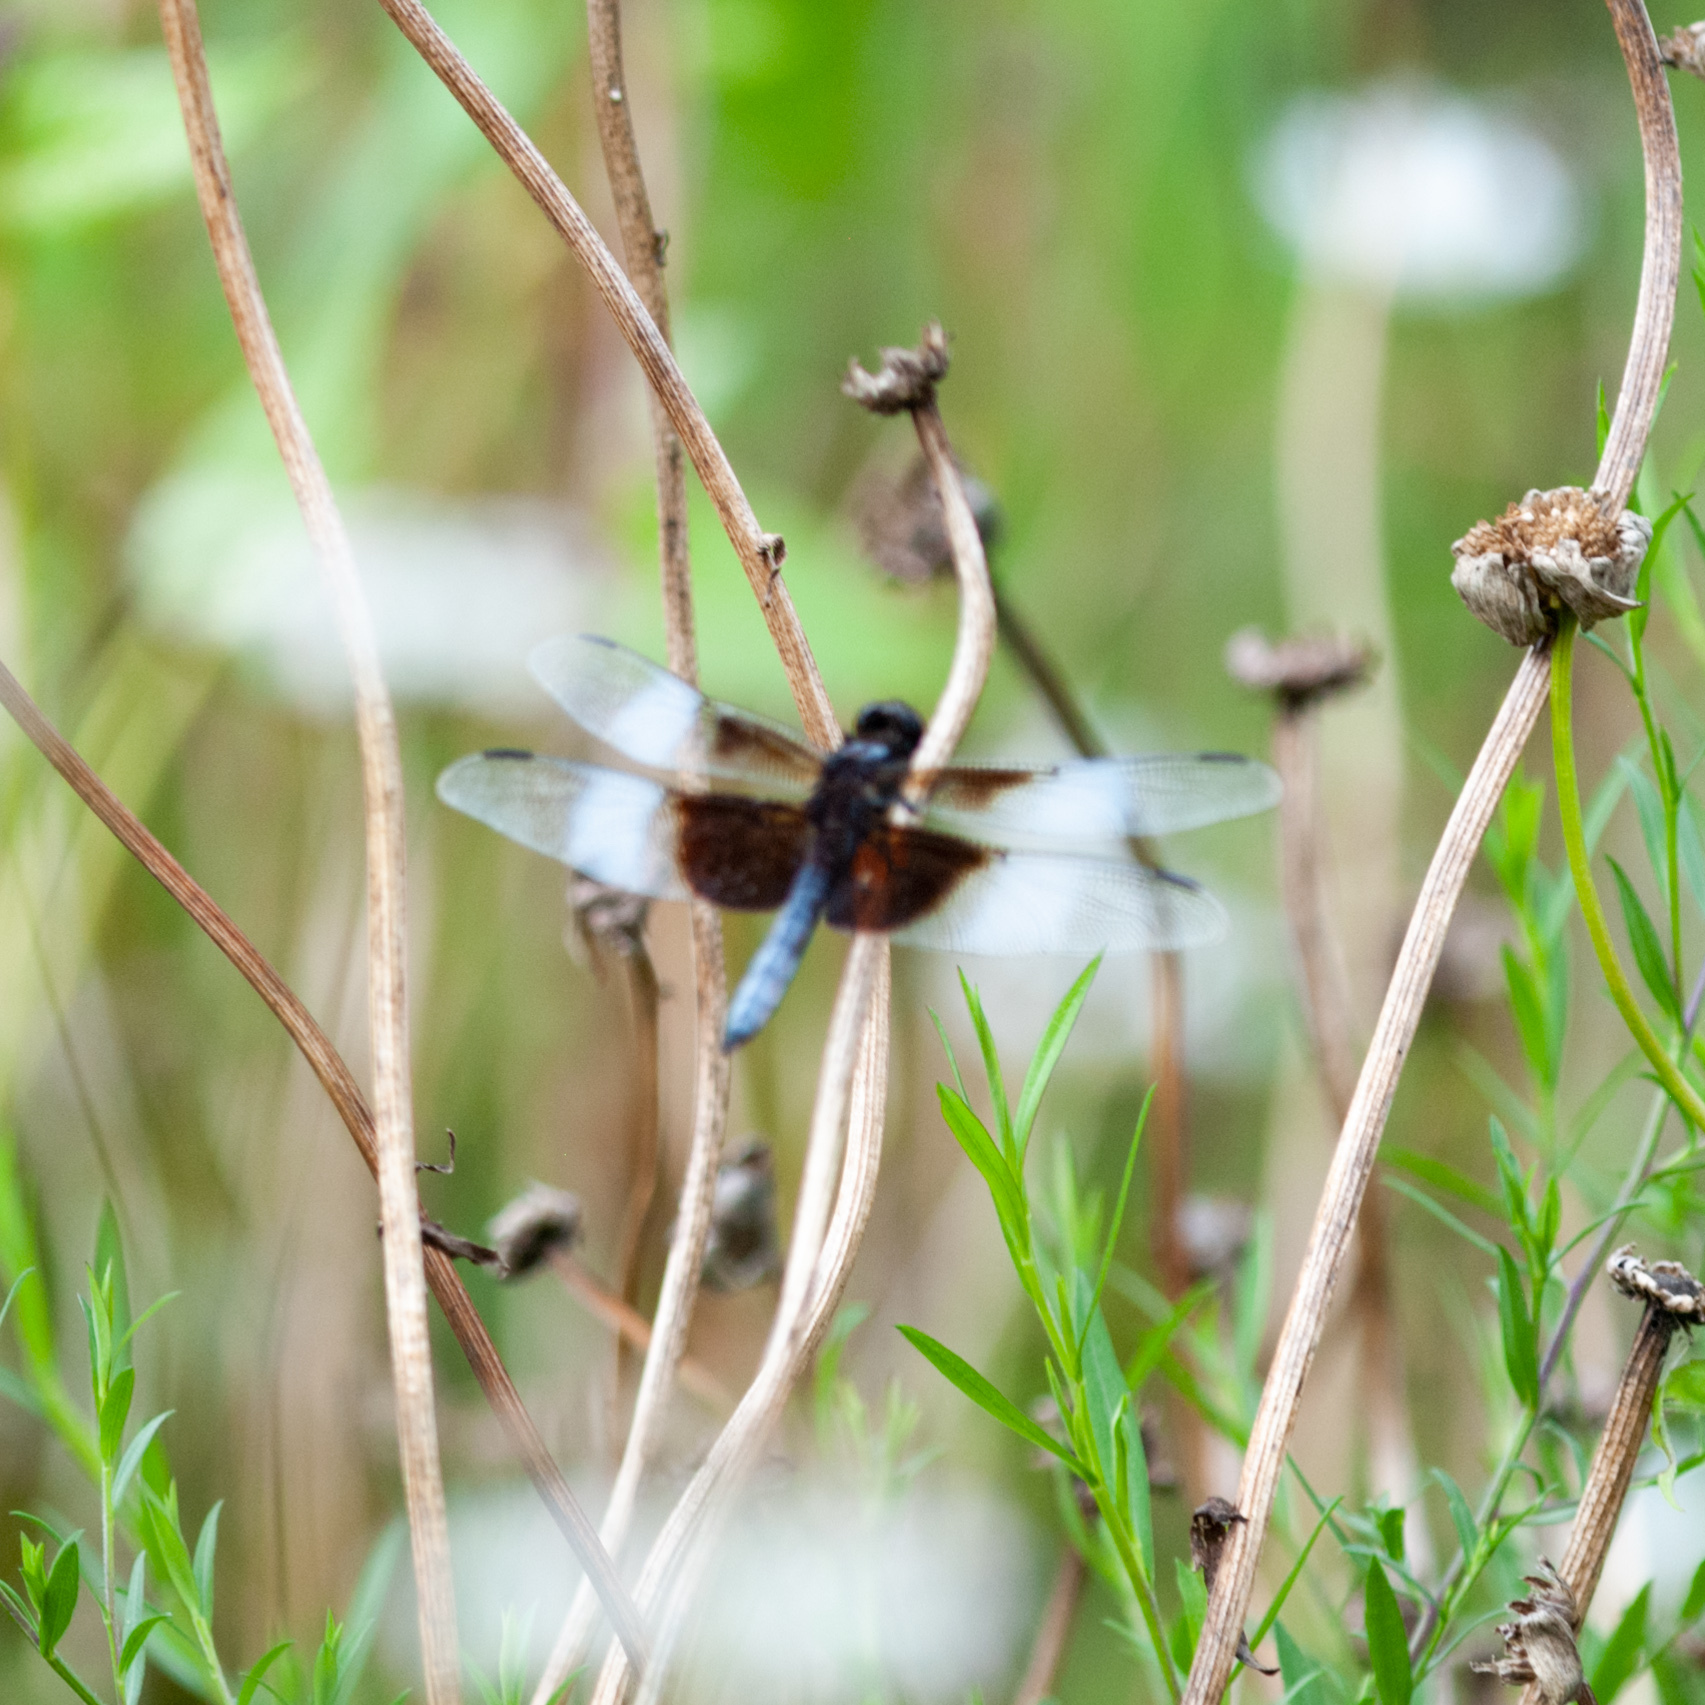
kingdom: Animalia
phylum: Arthropoda
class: Insecta
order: Odonata
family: Libellulidae
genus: Libellula
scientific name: Libellula luctuosa
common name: Widow skimmer
